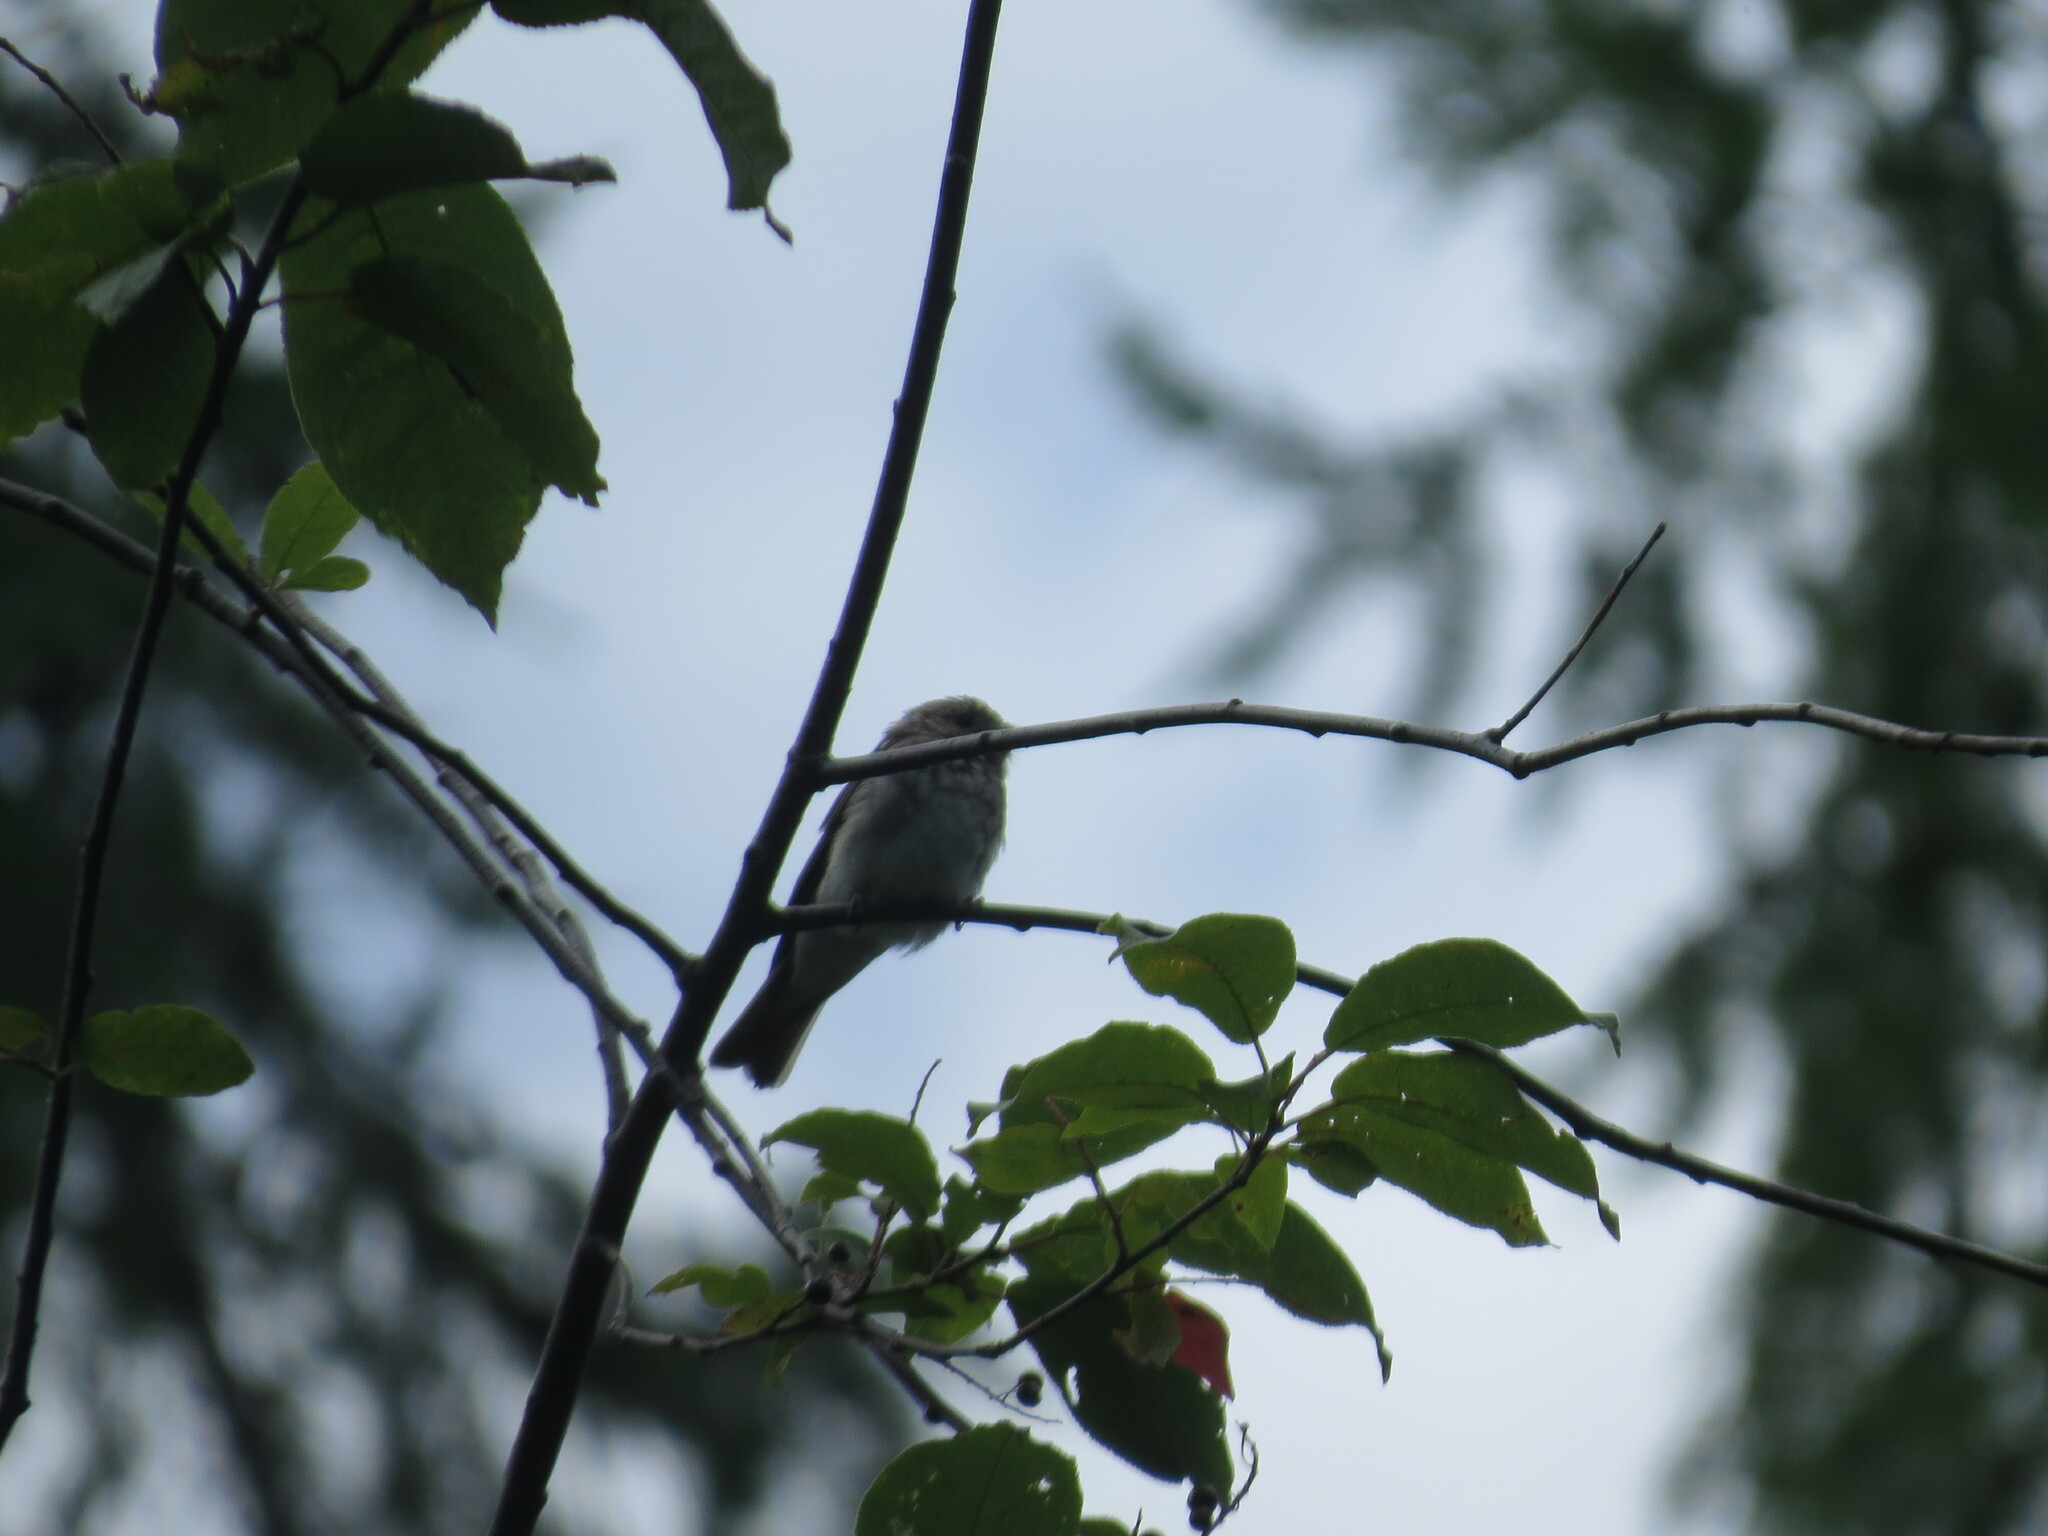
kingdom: Animalia
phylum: Chordata
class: Aves
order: Passeriformes
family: Muscicapidae
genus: Muscicapa
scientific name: Muscicapa striata
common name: Spotted flycatcher
